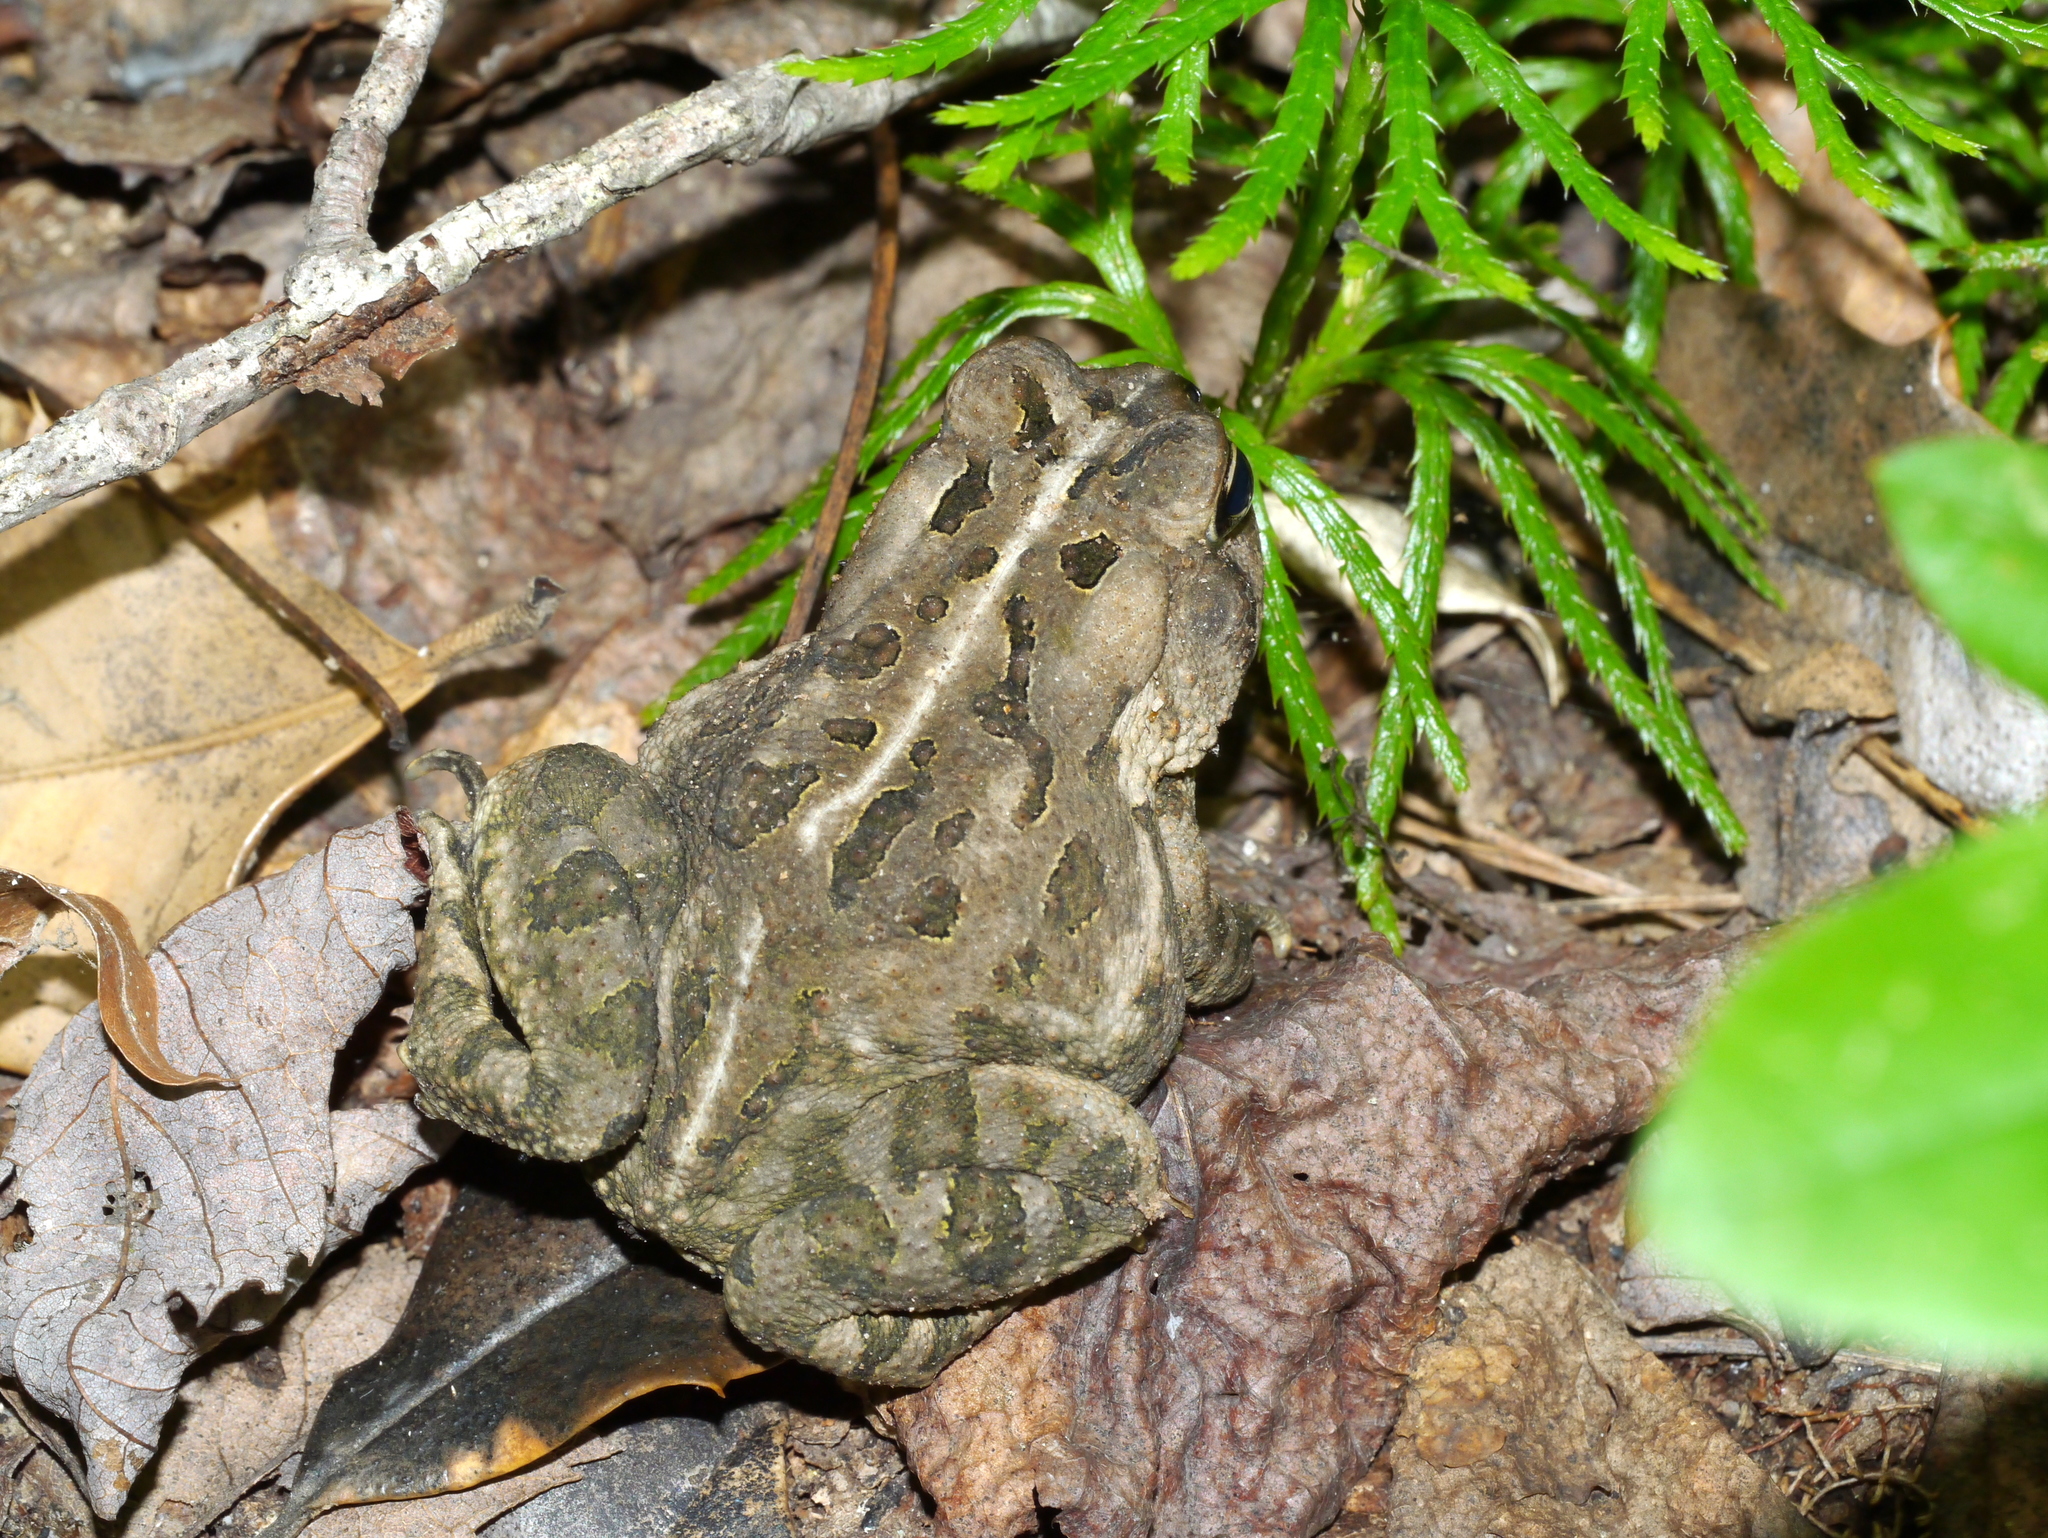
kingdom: Animalia
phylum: Chordata
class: Amphibia
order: Anura
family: Bufonidae
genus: Anaxyrus
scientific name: Anaxyrus fowleri
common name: Fowler's toad
